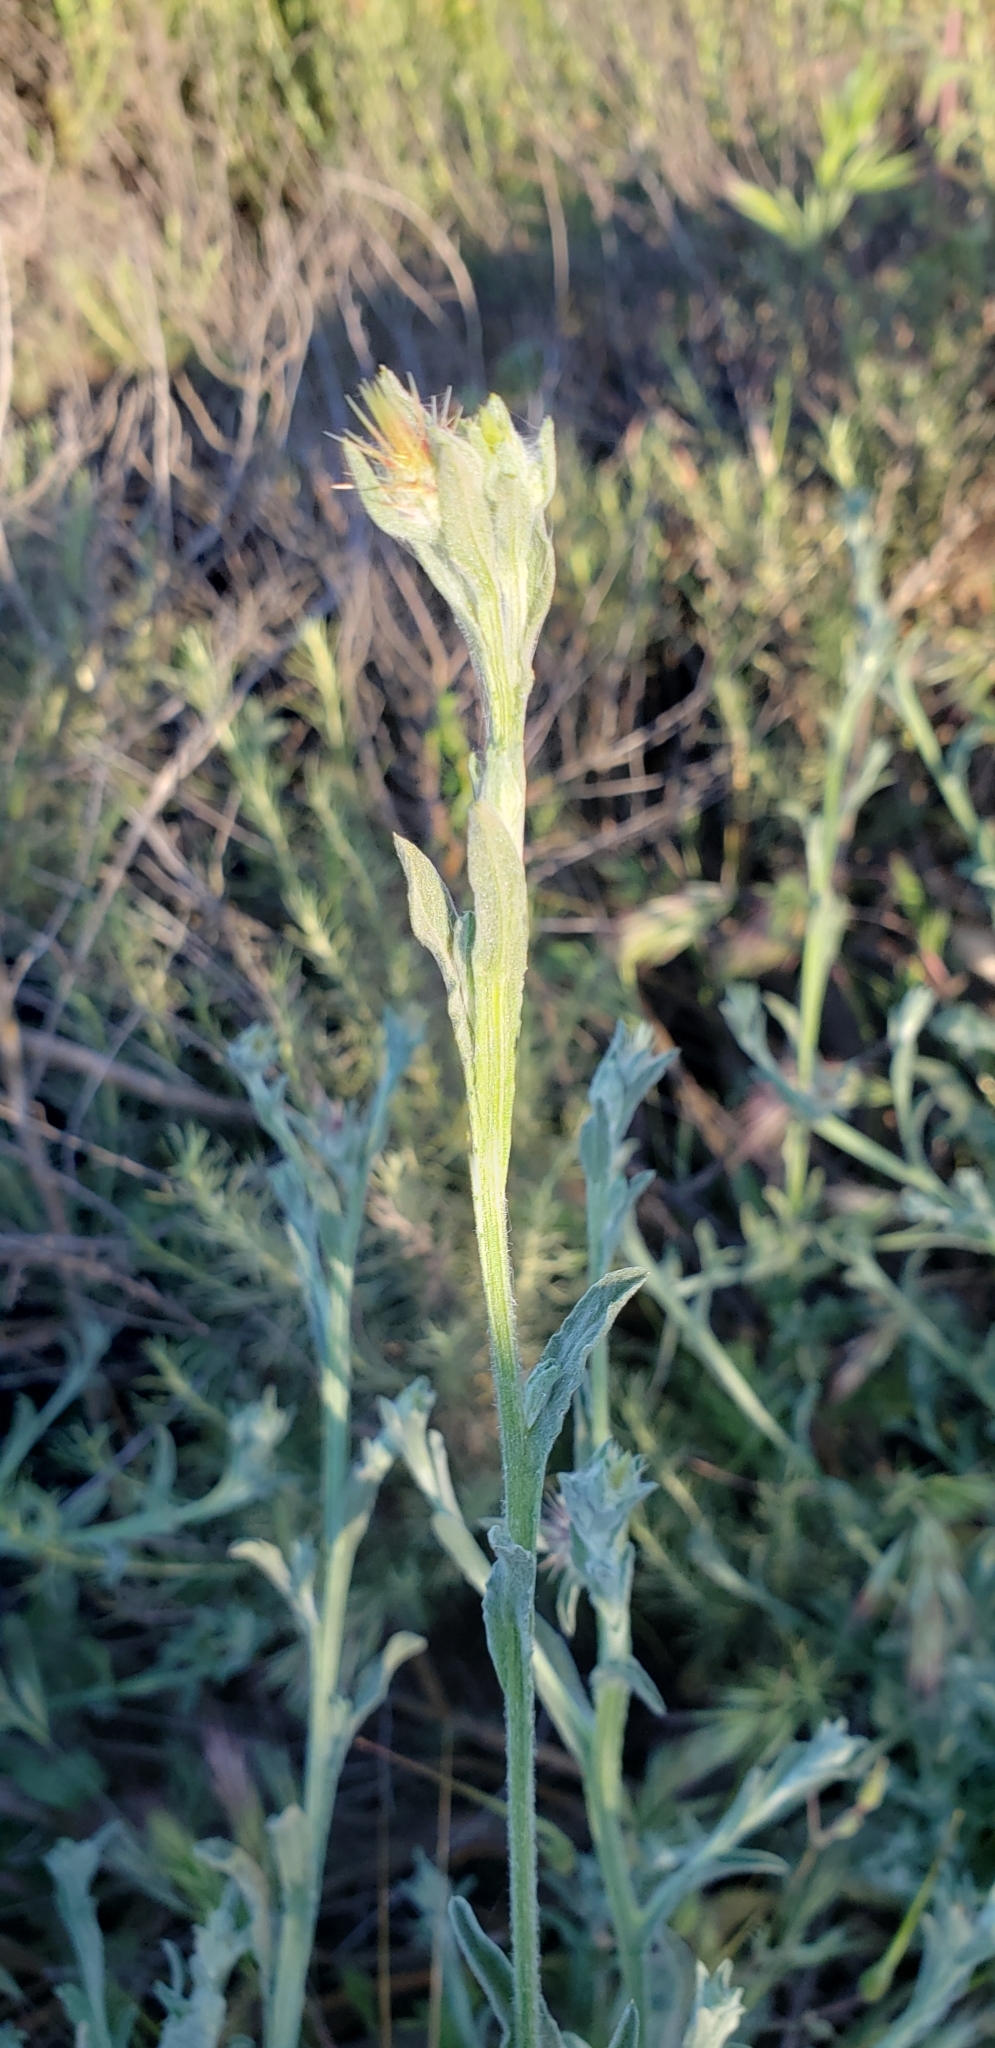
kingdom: Plantae
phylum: Tracheophyta
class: Magnoliopsida
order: Asterales
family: Asteraceae
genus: Centaurea
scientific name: Centaurea melitensis
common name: Maltese star-thistle
